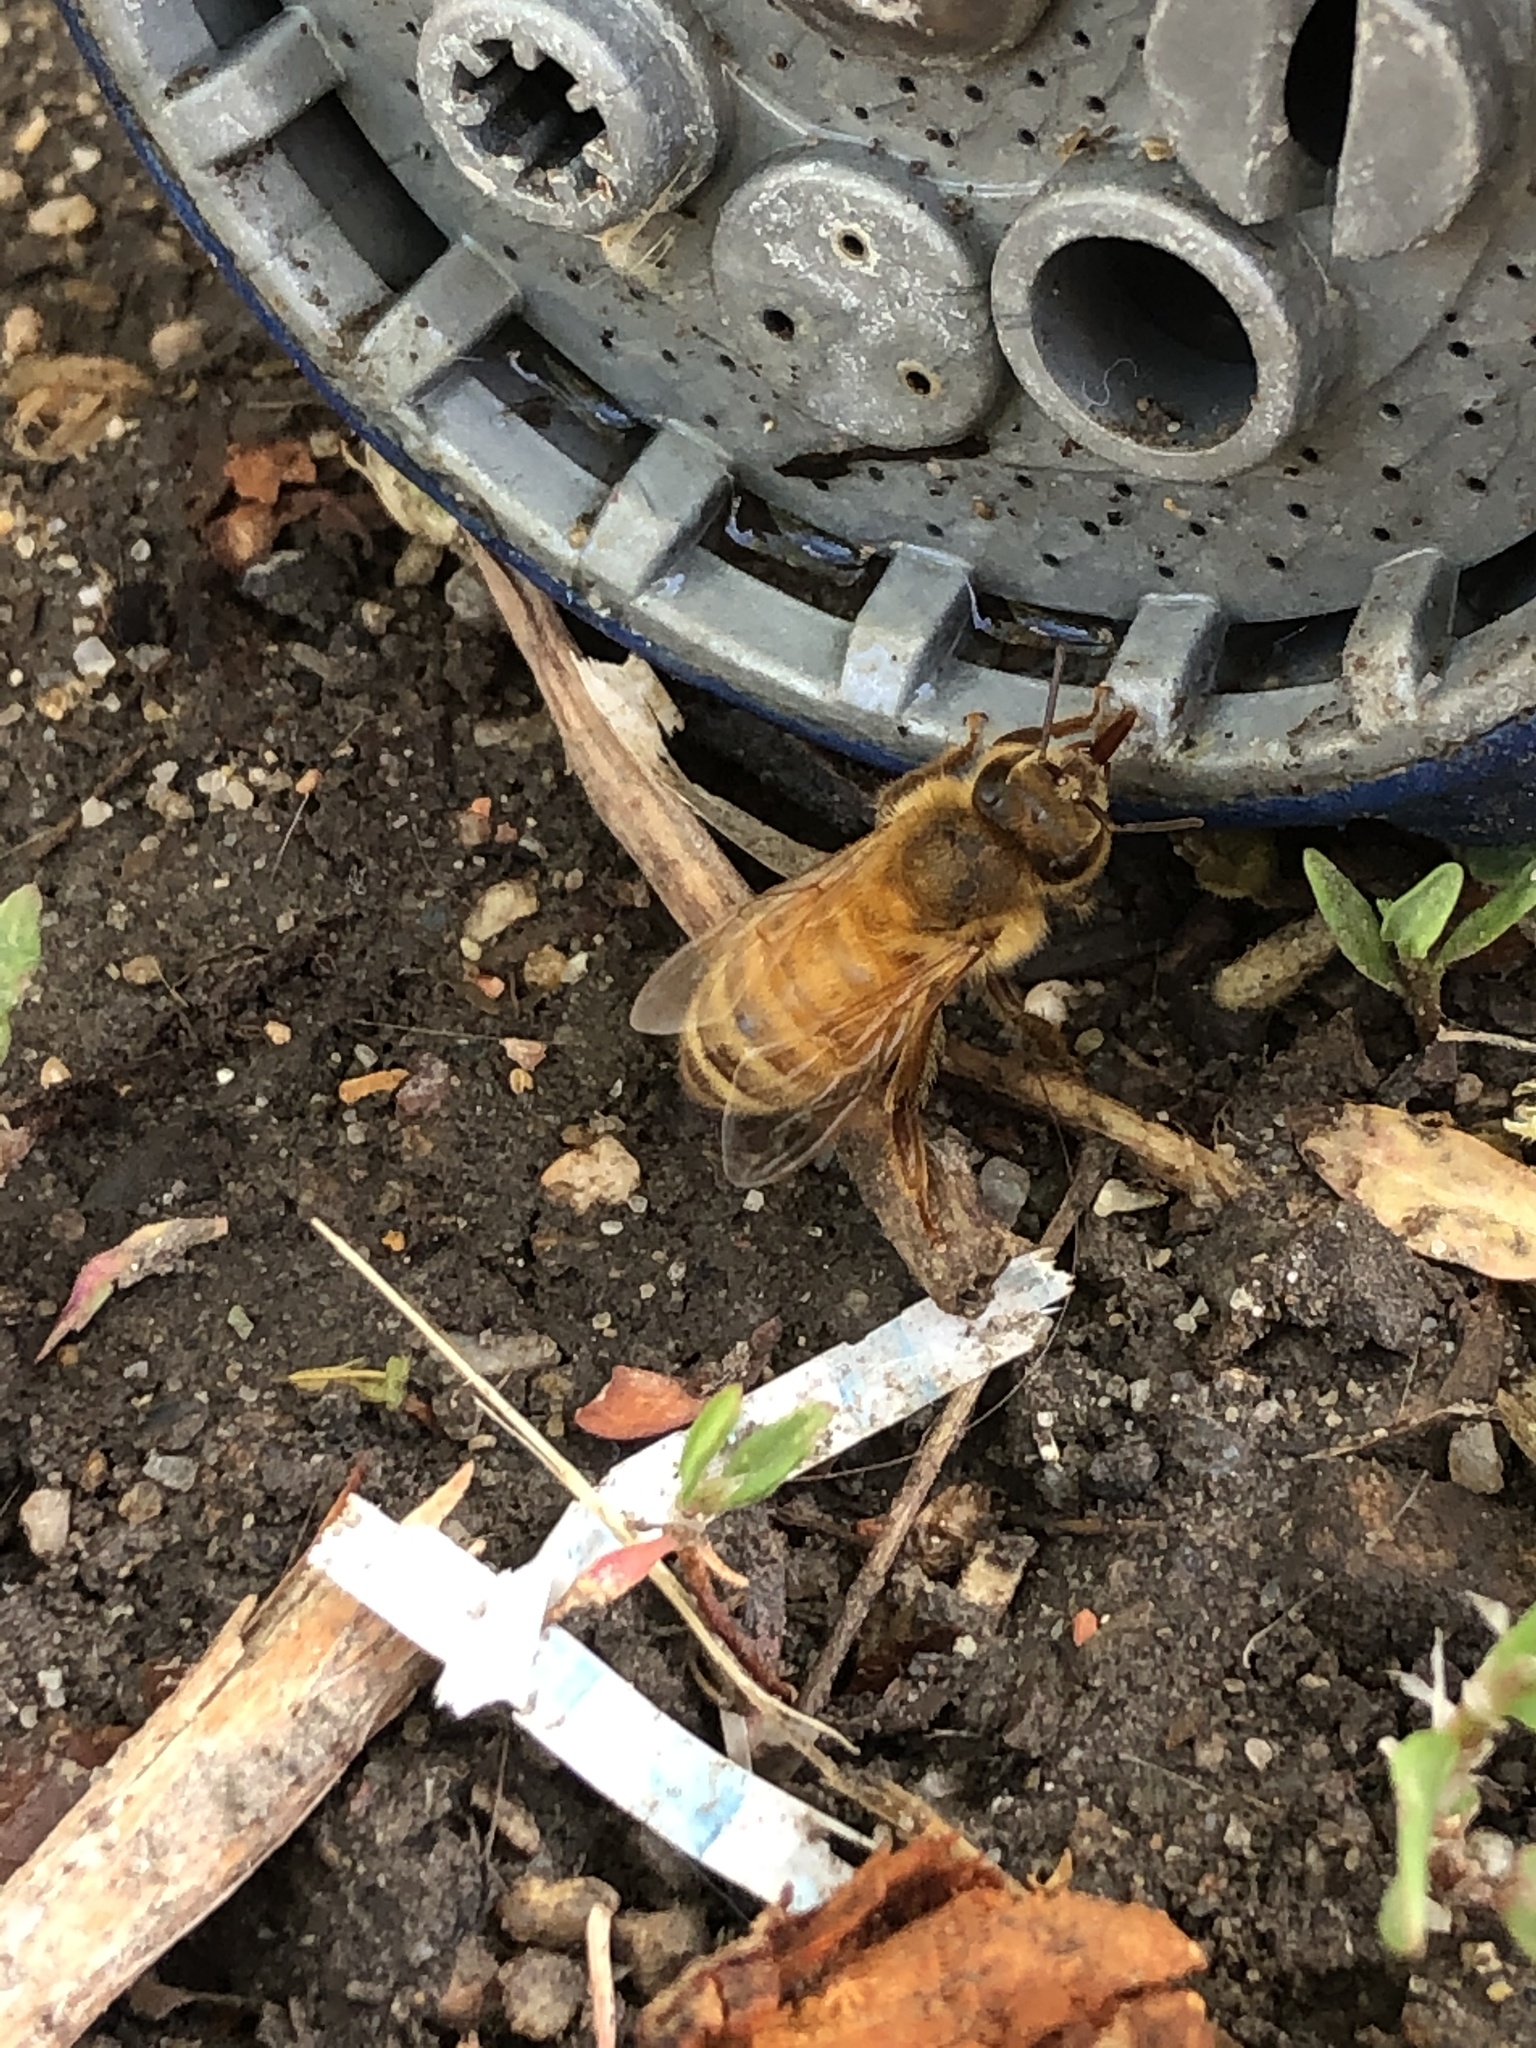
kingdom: Animalia
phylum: Arthropoda
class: Insecta
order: Hymenoptera
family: Apidae
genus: Apis
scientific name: Apis mellifera
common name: Honey bee
